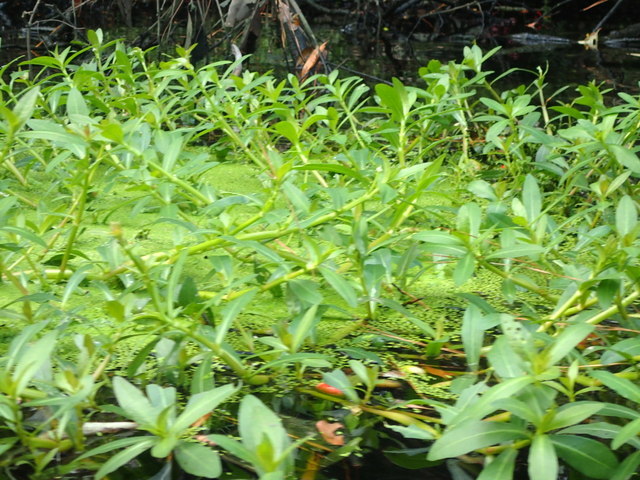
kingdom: Plantae
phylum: Tracheophyta
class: Magnoliopsida
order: Caryophyllales
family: Amaranthaceae
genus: Alternanthera
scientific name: Alternanthera philoxeroides
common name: Alligatorweed
